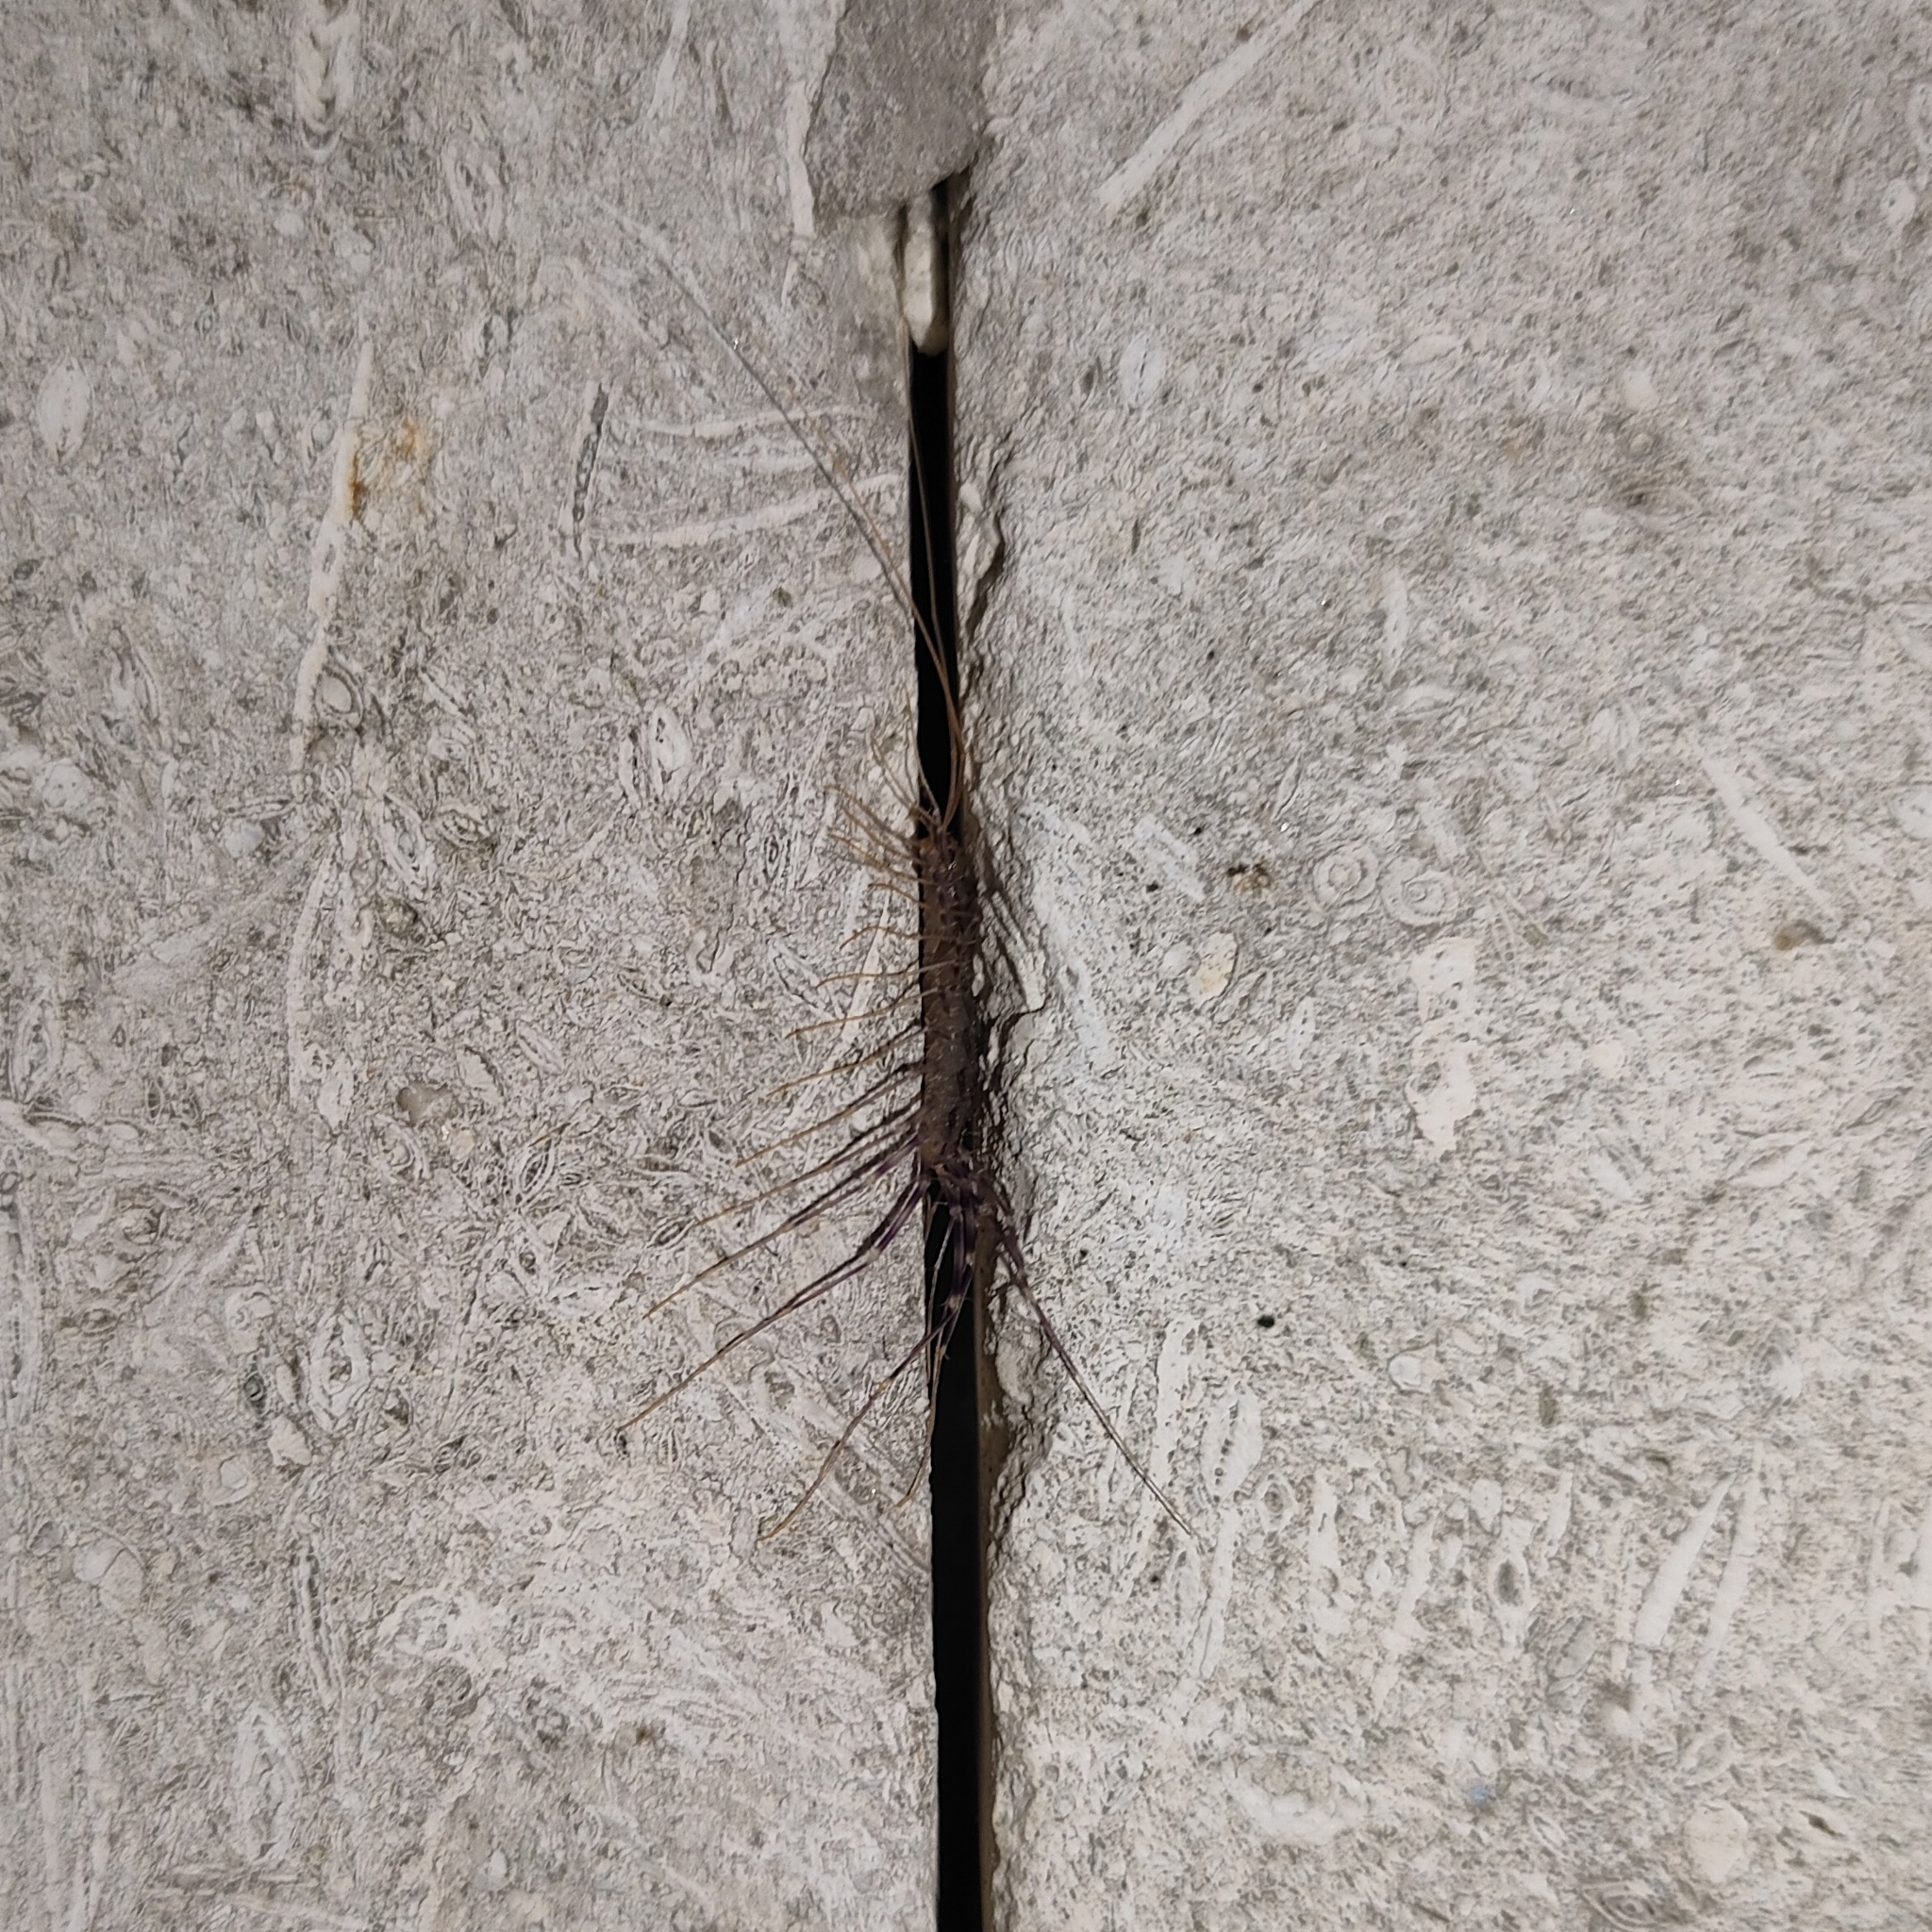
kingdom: Animalia
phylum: Arthropoda
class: Chilopoda
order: Scutigeromorpha
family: Scutigeridae
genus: Scutigera
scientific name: Scutigera coleoptrata
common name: House centipede
